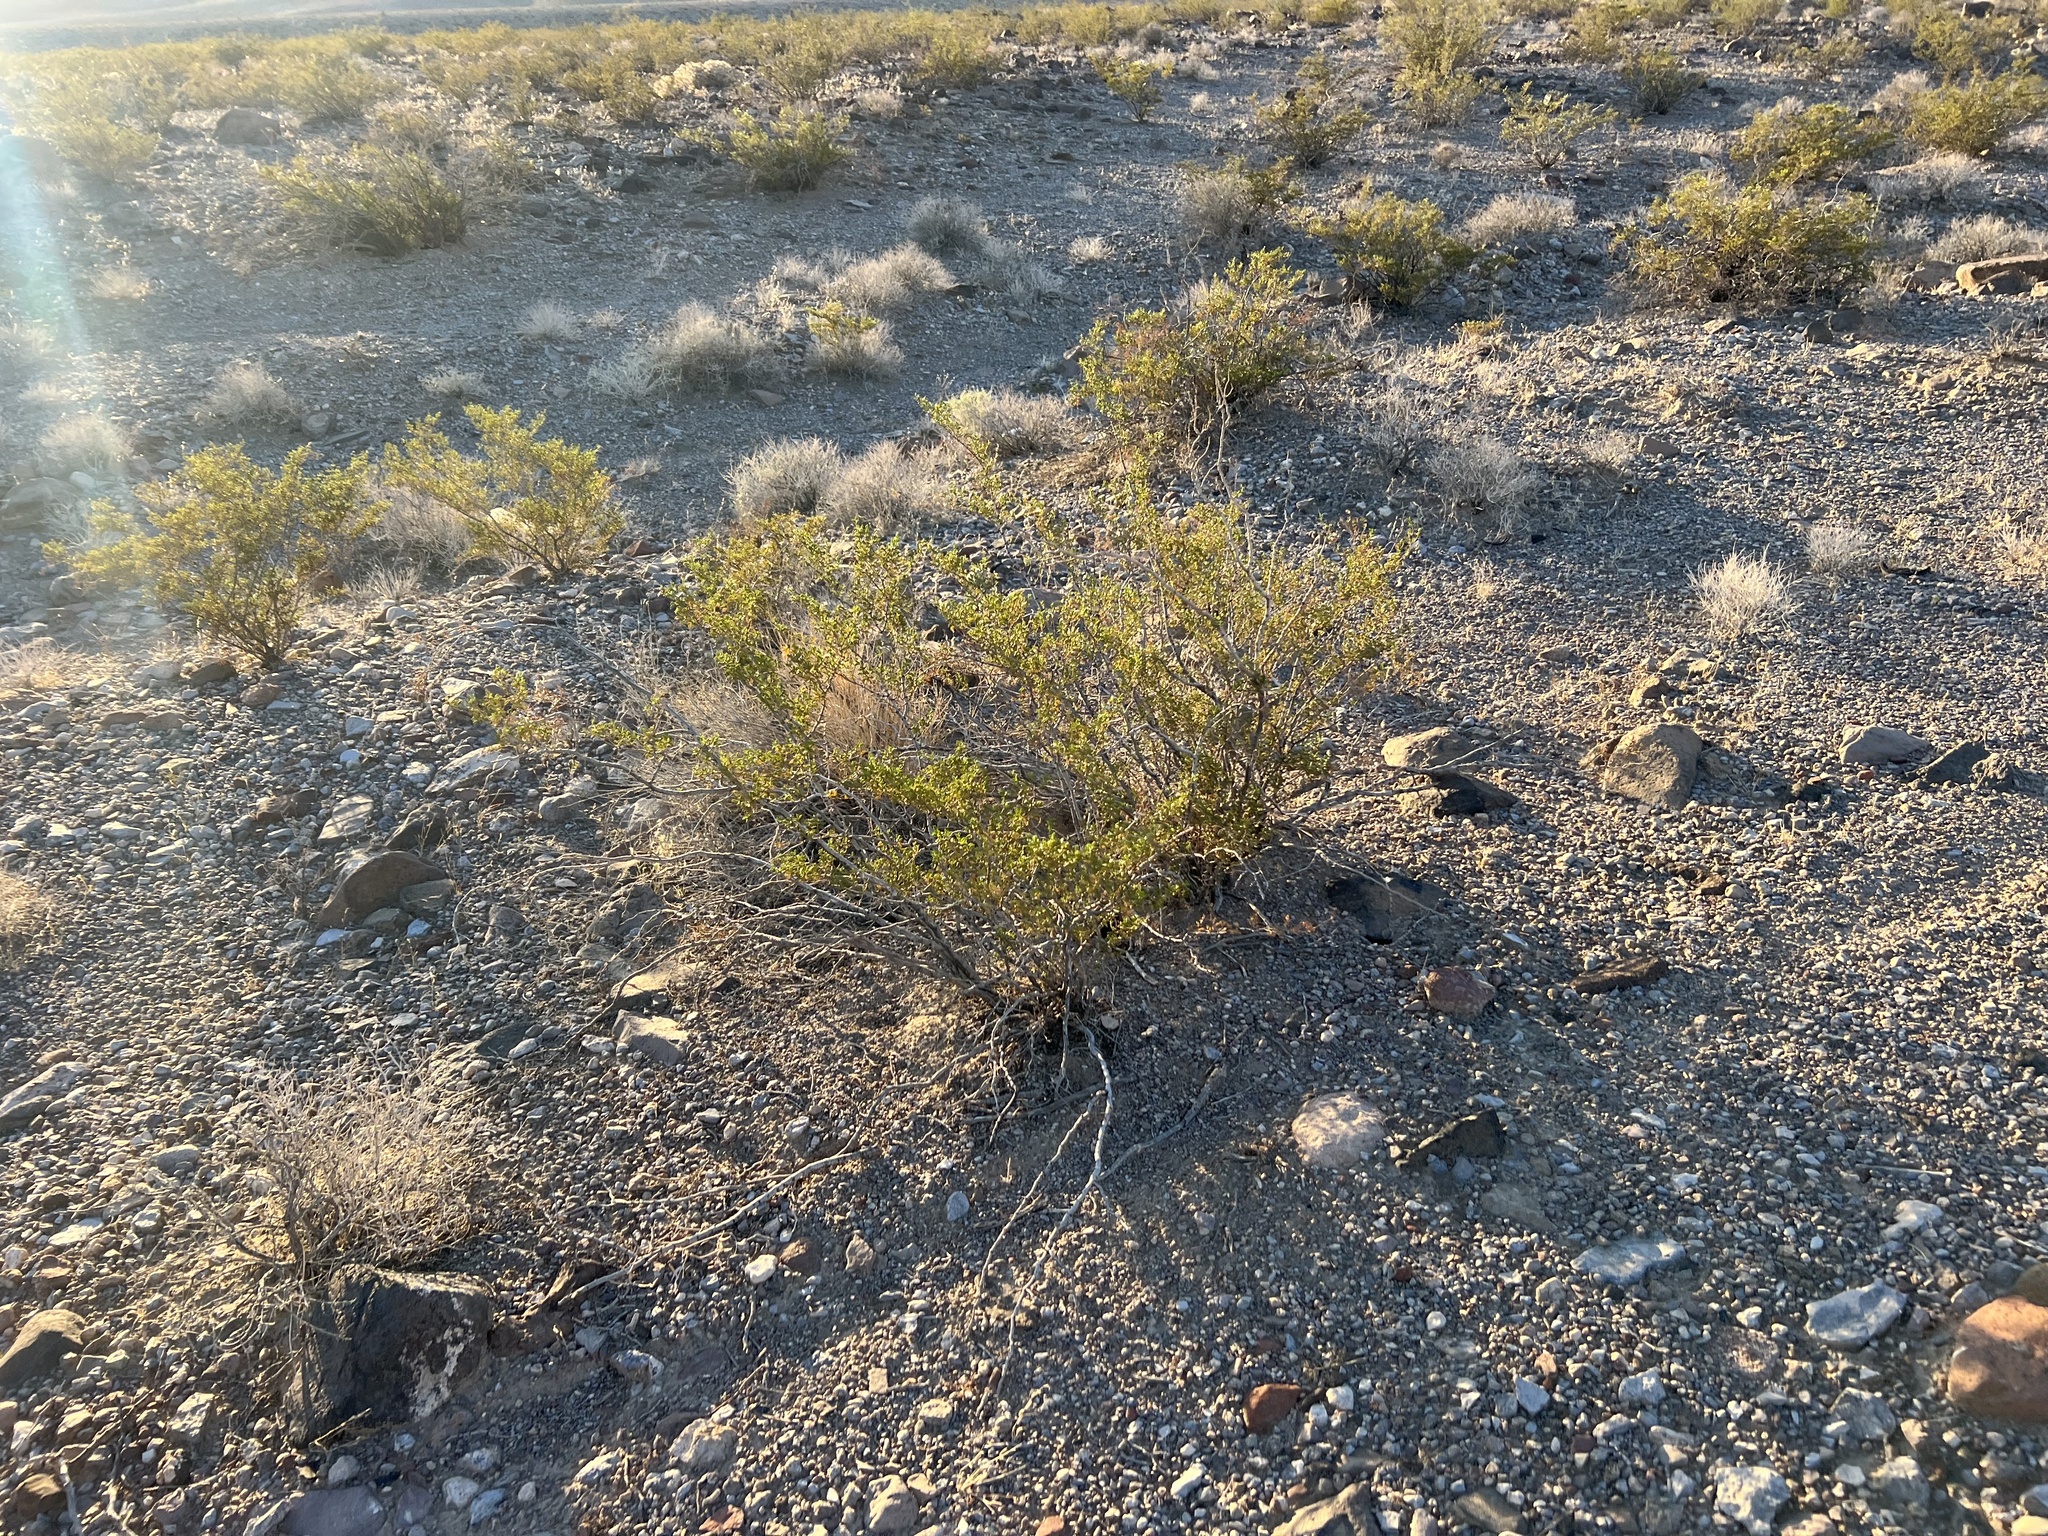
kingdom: Plantae
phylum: Tracheophyta
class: Magnoliopsida
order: Zygophyllales
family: Zygophyllaceae
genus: Larrea
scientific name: Larrea tridentata
